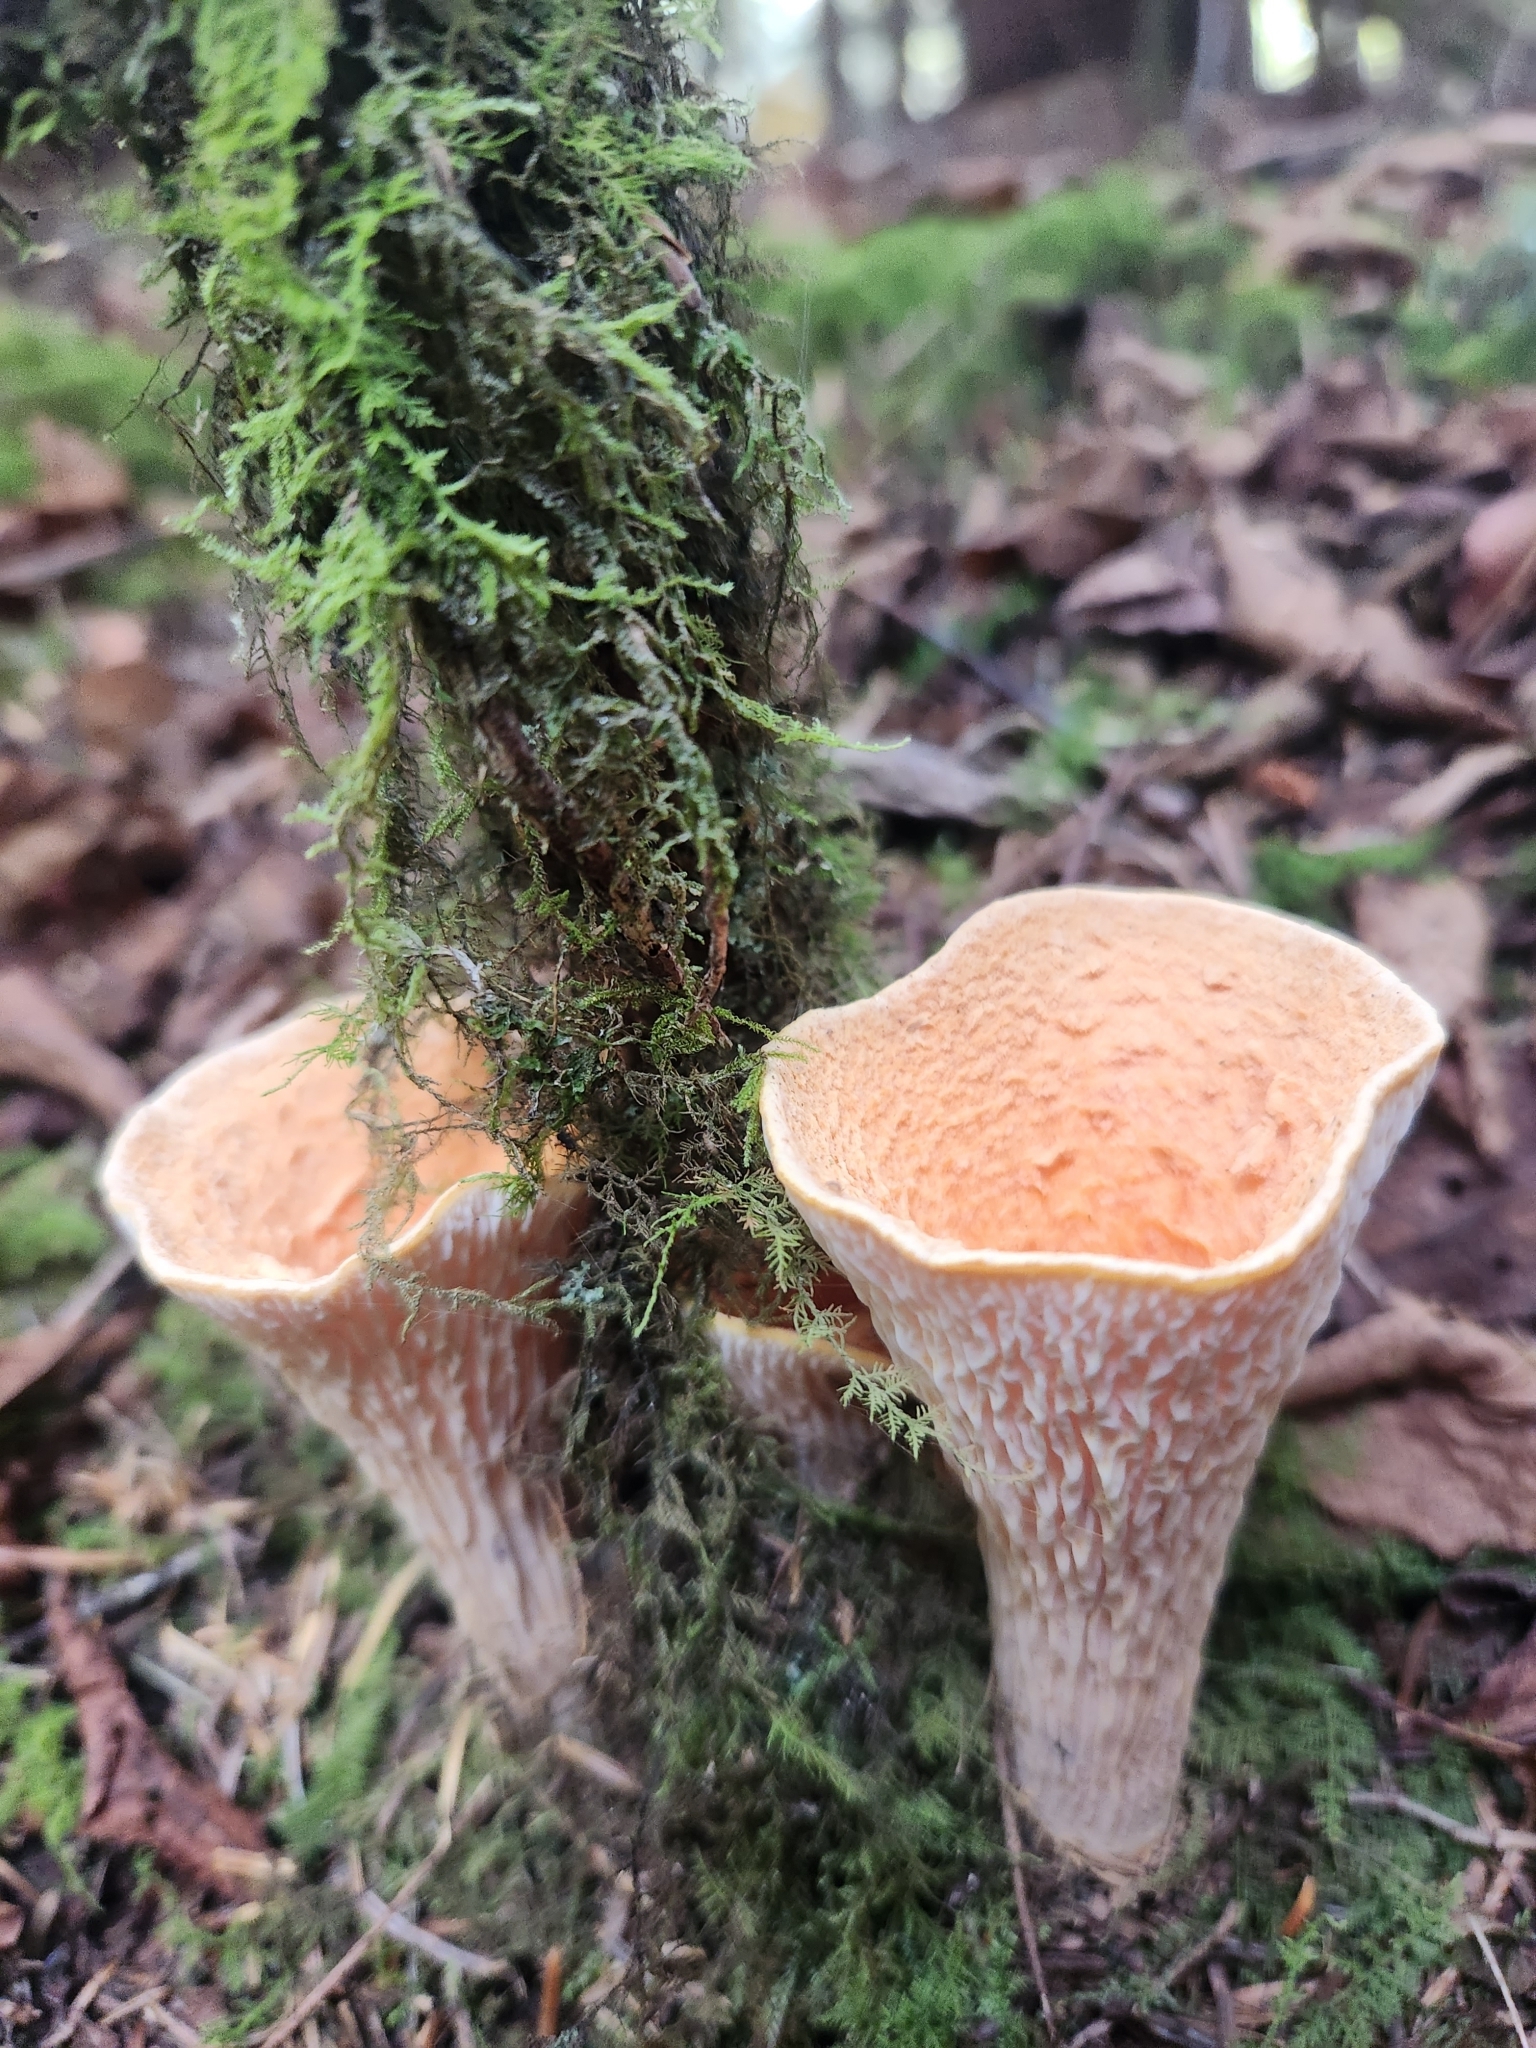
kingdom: Fungi
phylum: Basidiomycota
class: Agaricomycetes
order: Gomphales
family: Gomphaceae
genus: Turbinellus
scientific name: Turbinellus floccosus
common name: Scaly chanterelle
